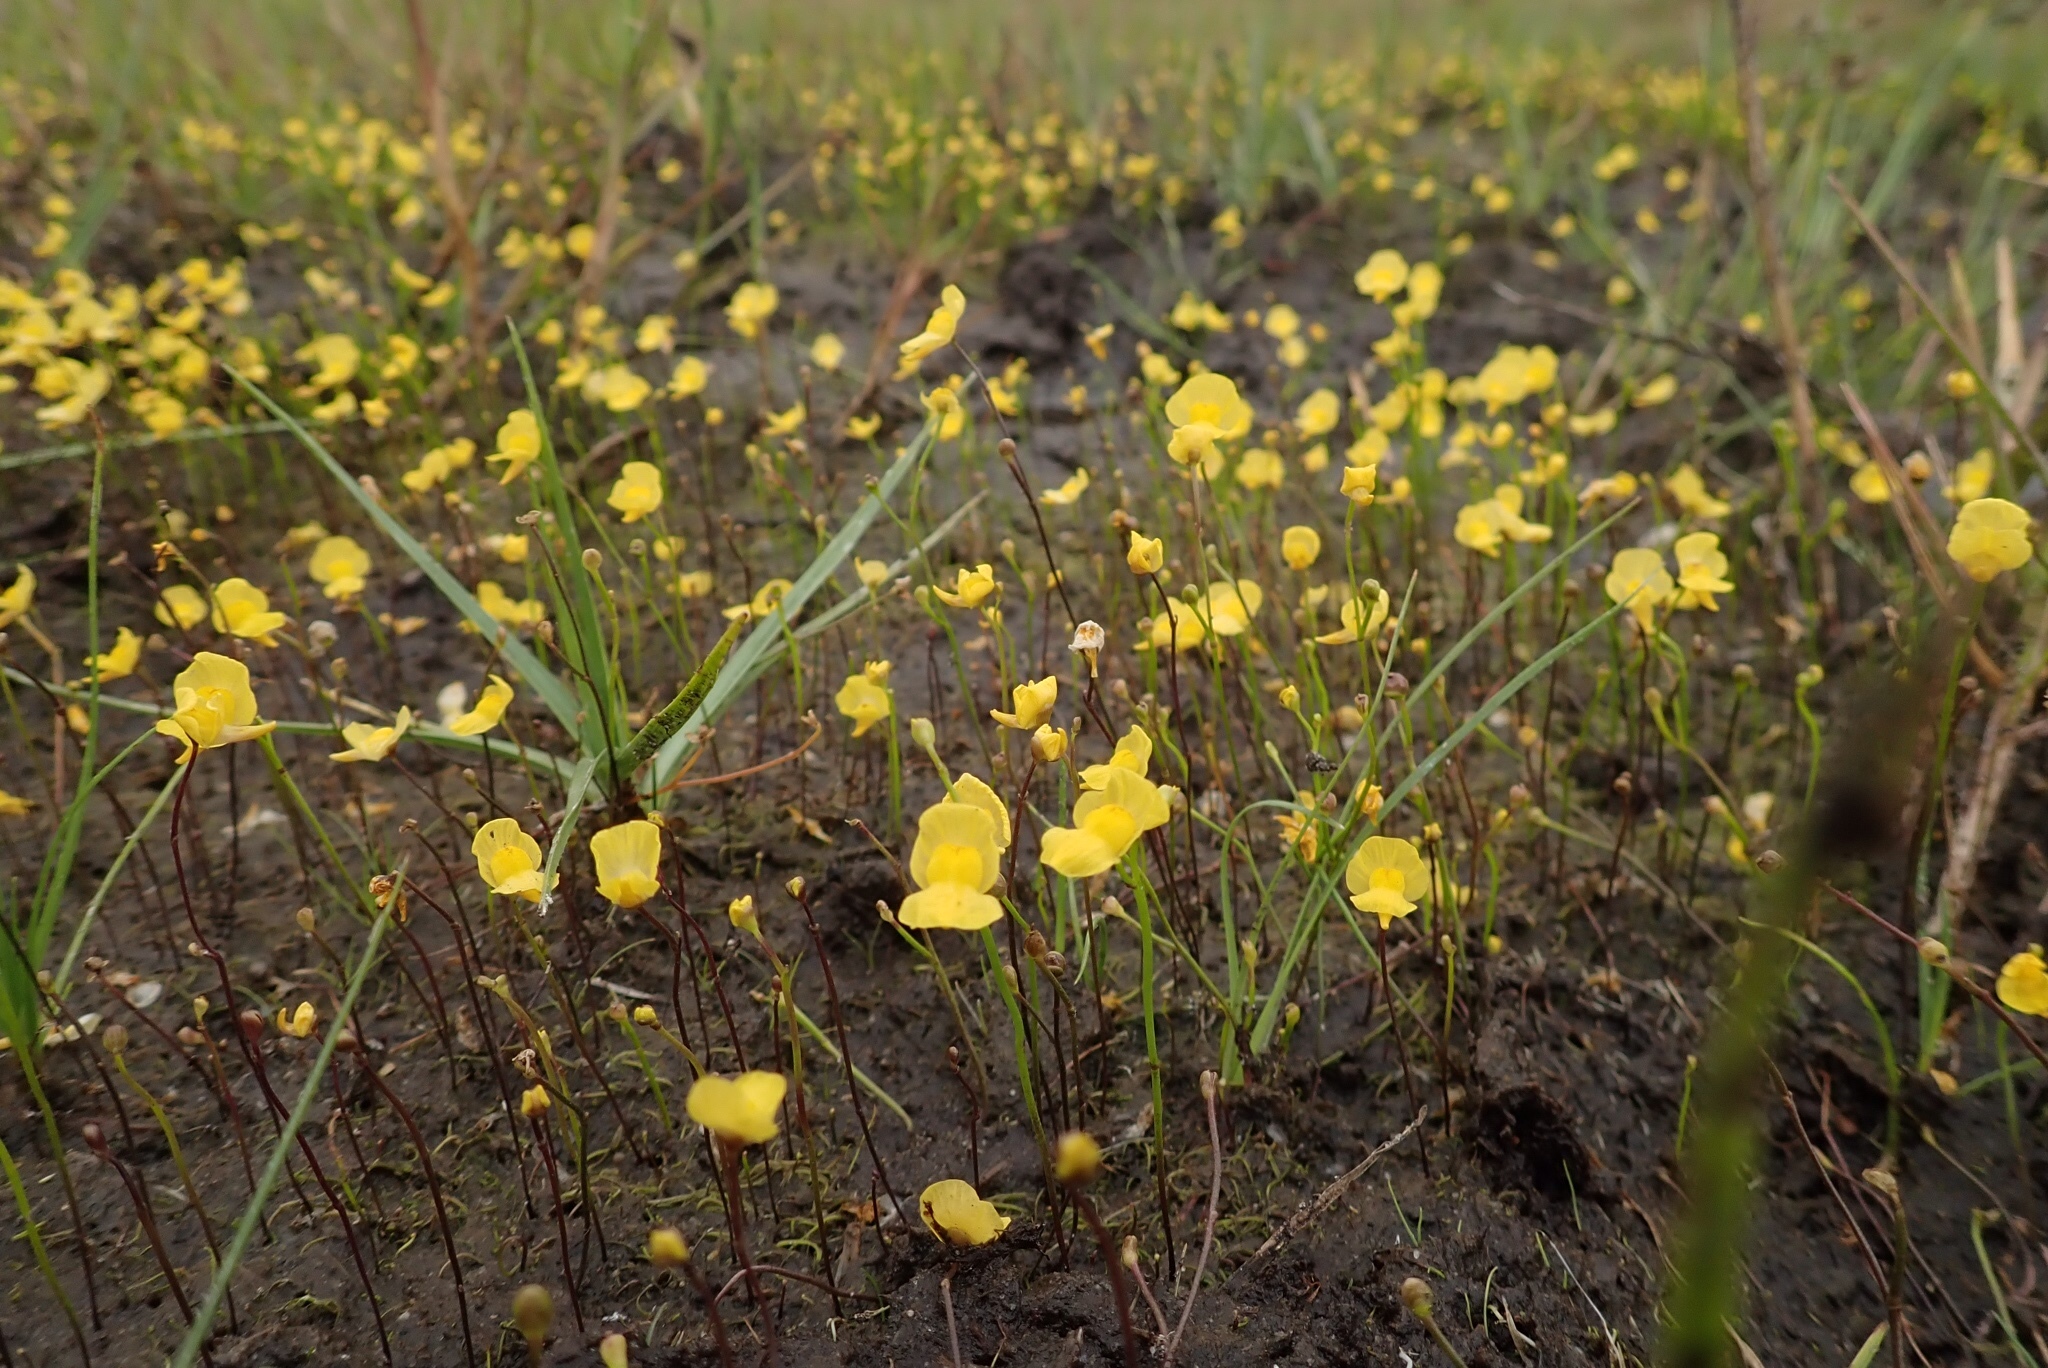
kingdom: Plantae
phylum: Tracheophyta
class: Magnoliopsida
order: Lamiales
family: Lentibulariaceae
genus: Utricularia
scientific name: Utricularia gibba
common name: Humped bladderwort
